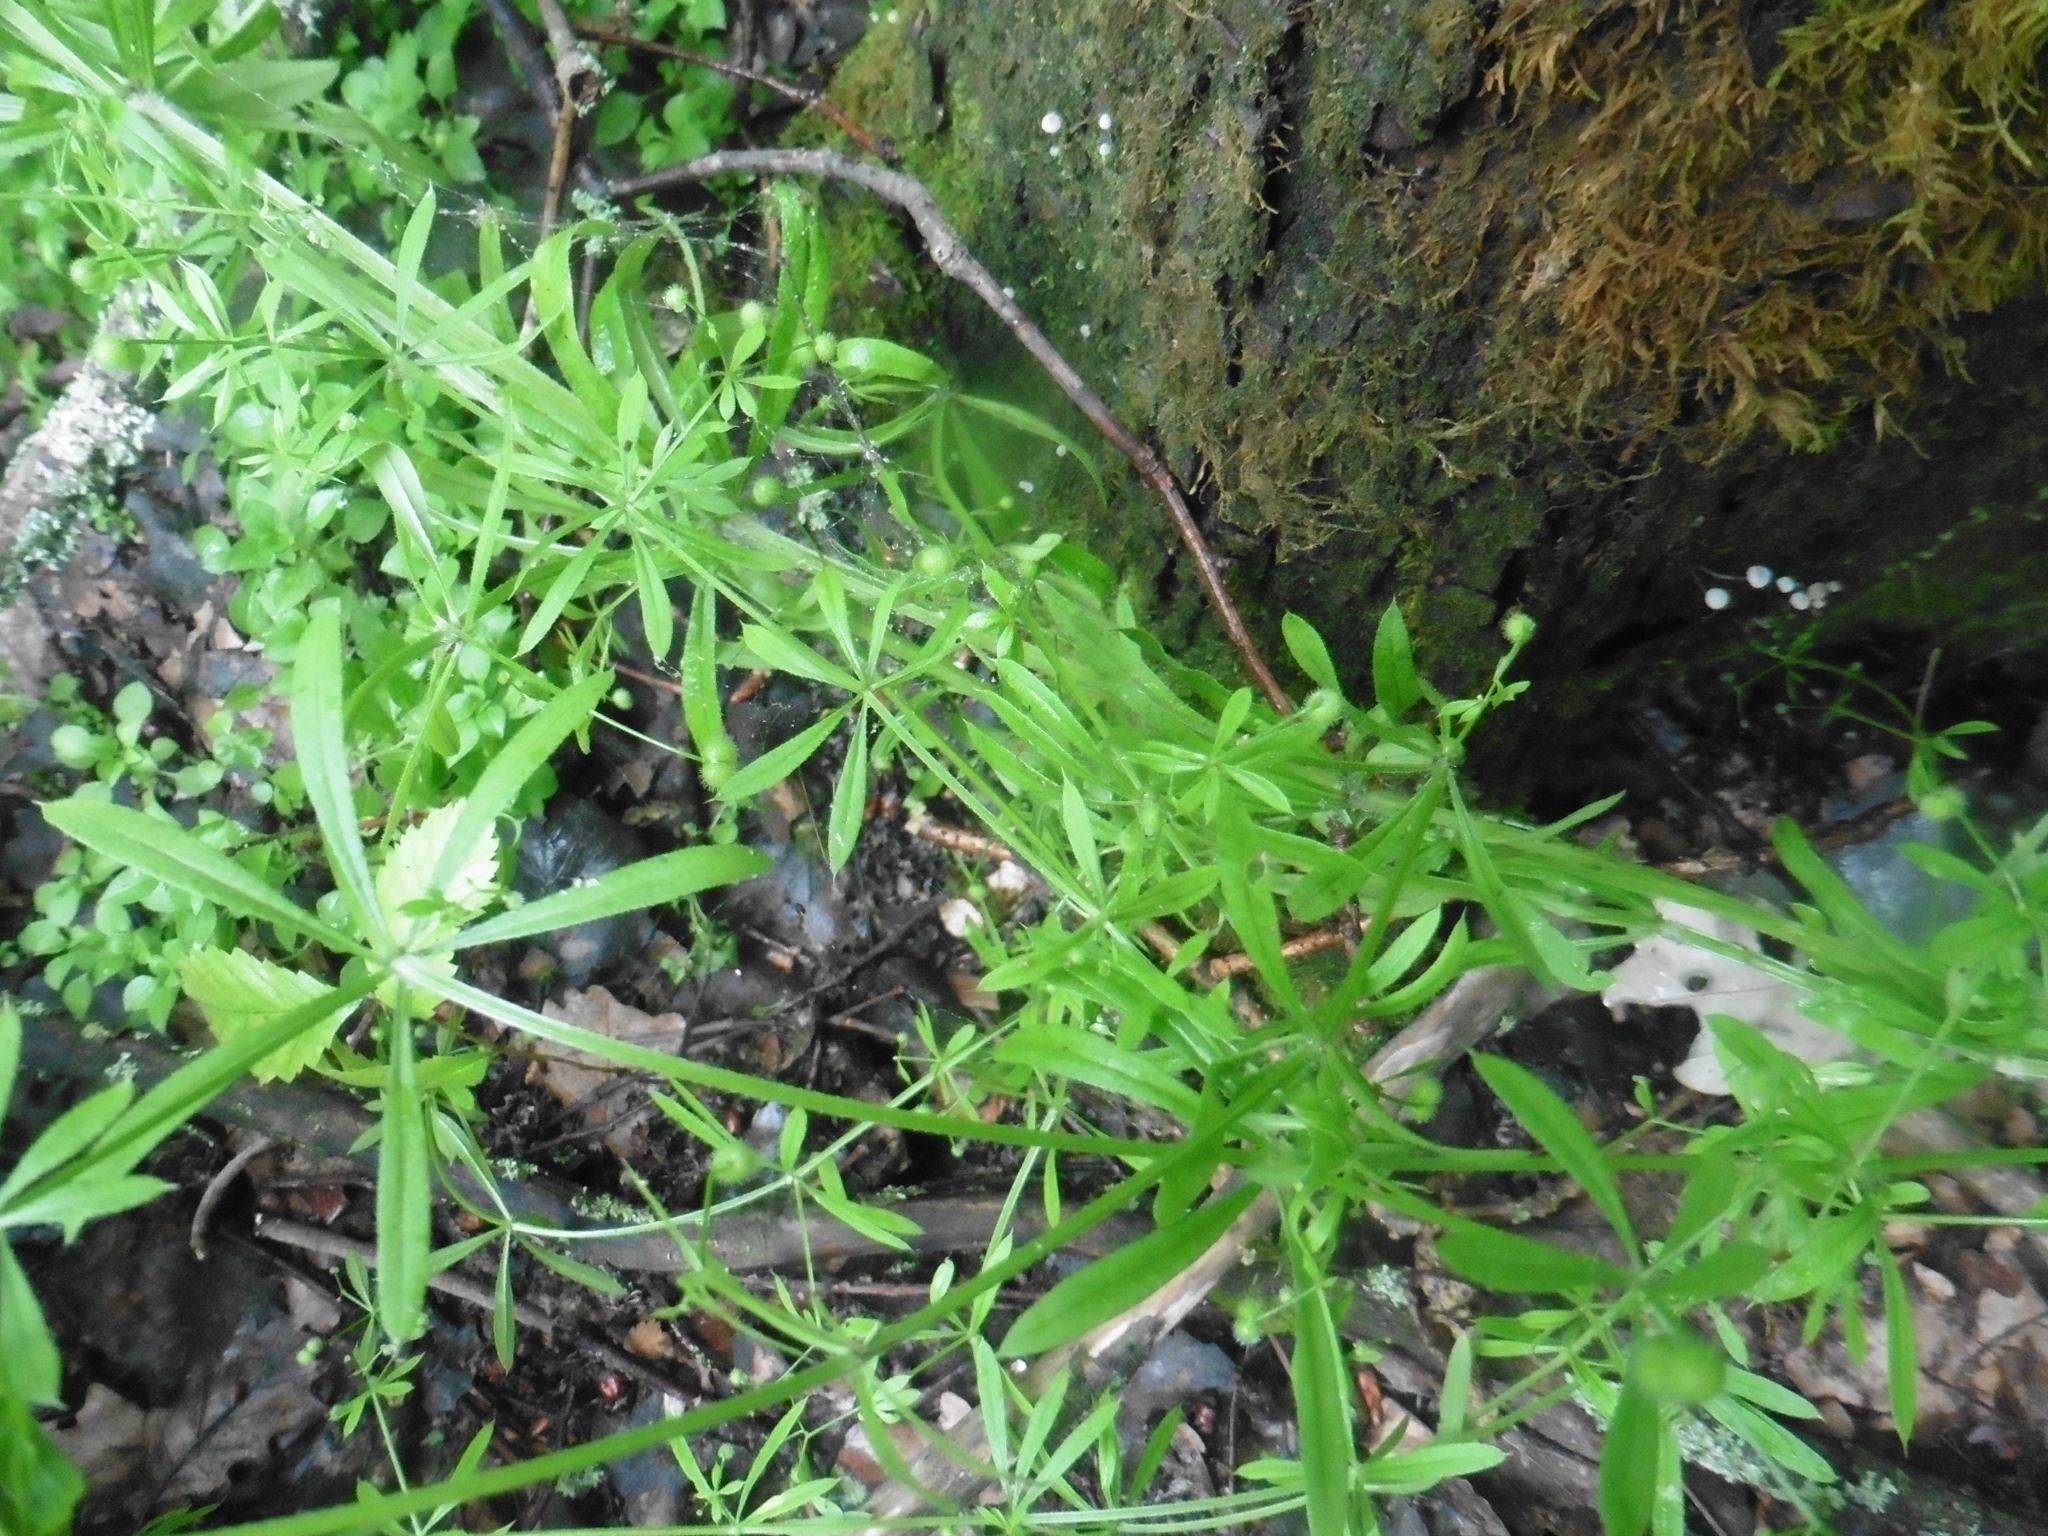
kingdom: Plantae
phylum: Tracheophyta
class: Magnoliopsida
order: Gentianales
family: Rubiaceae
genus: Galium
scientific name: Galium aparine
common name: Cleavers
